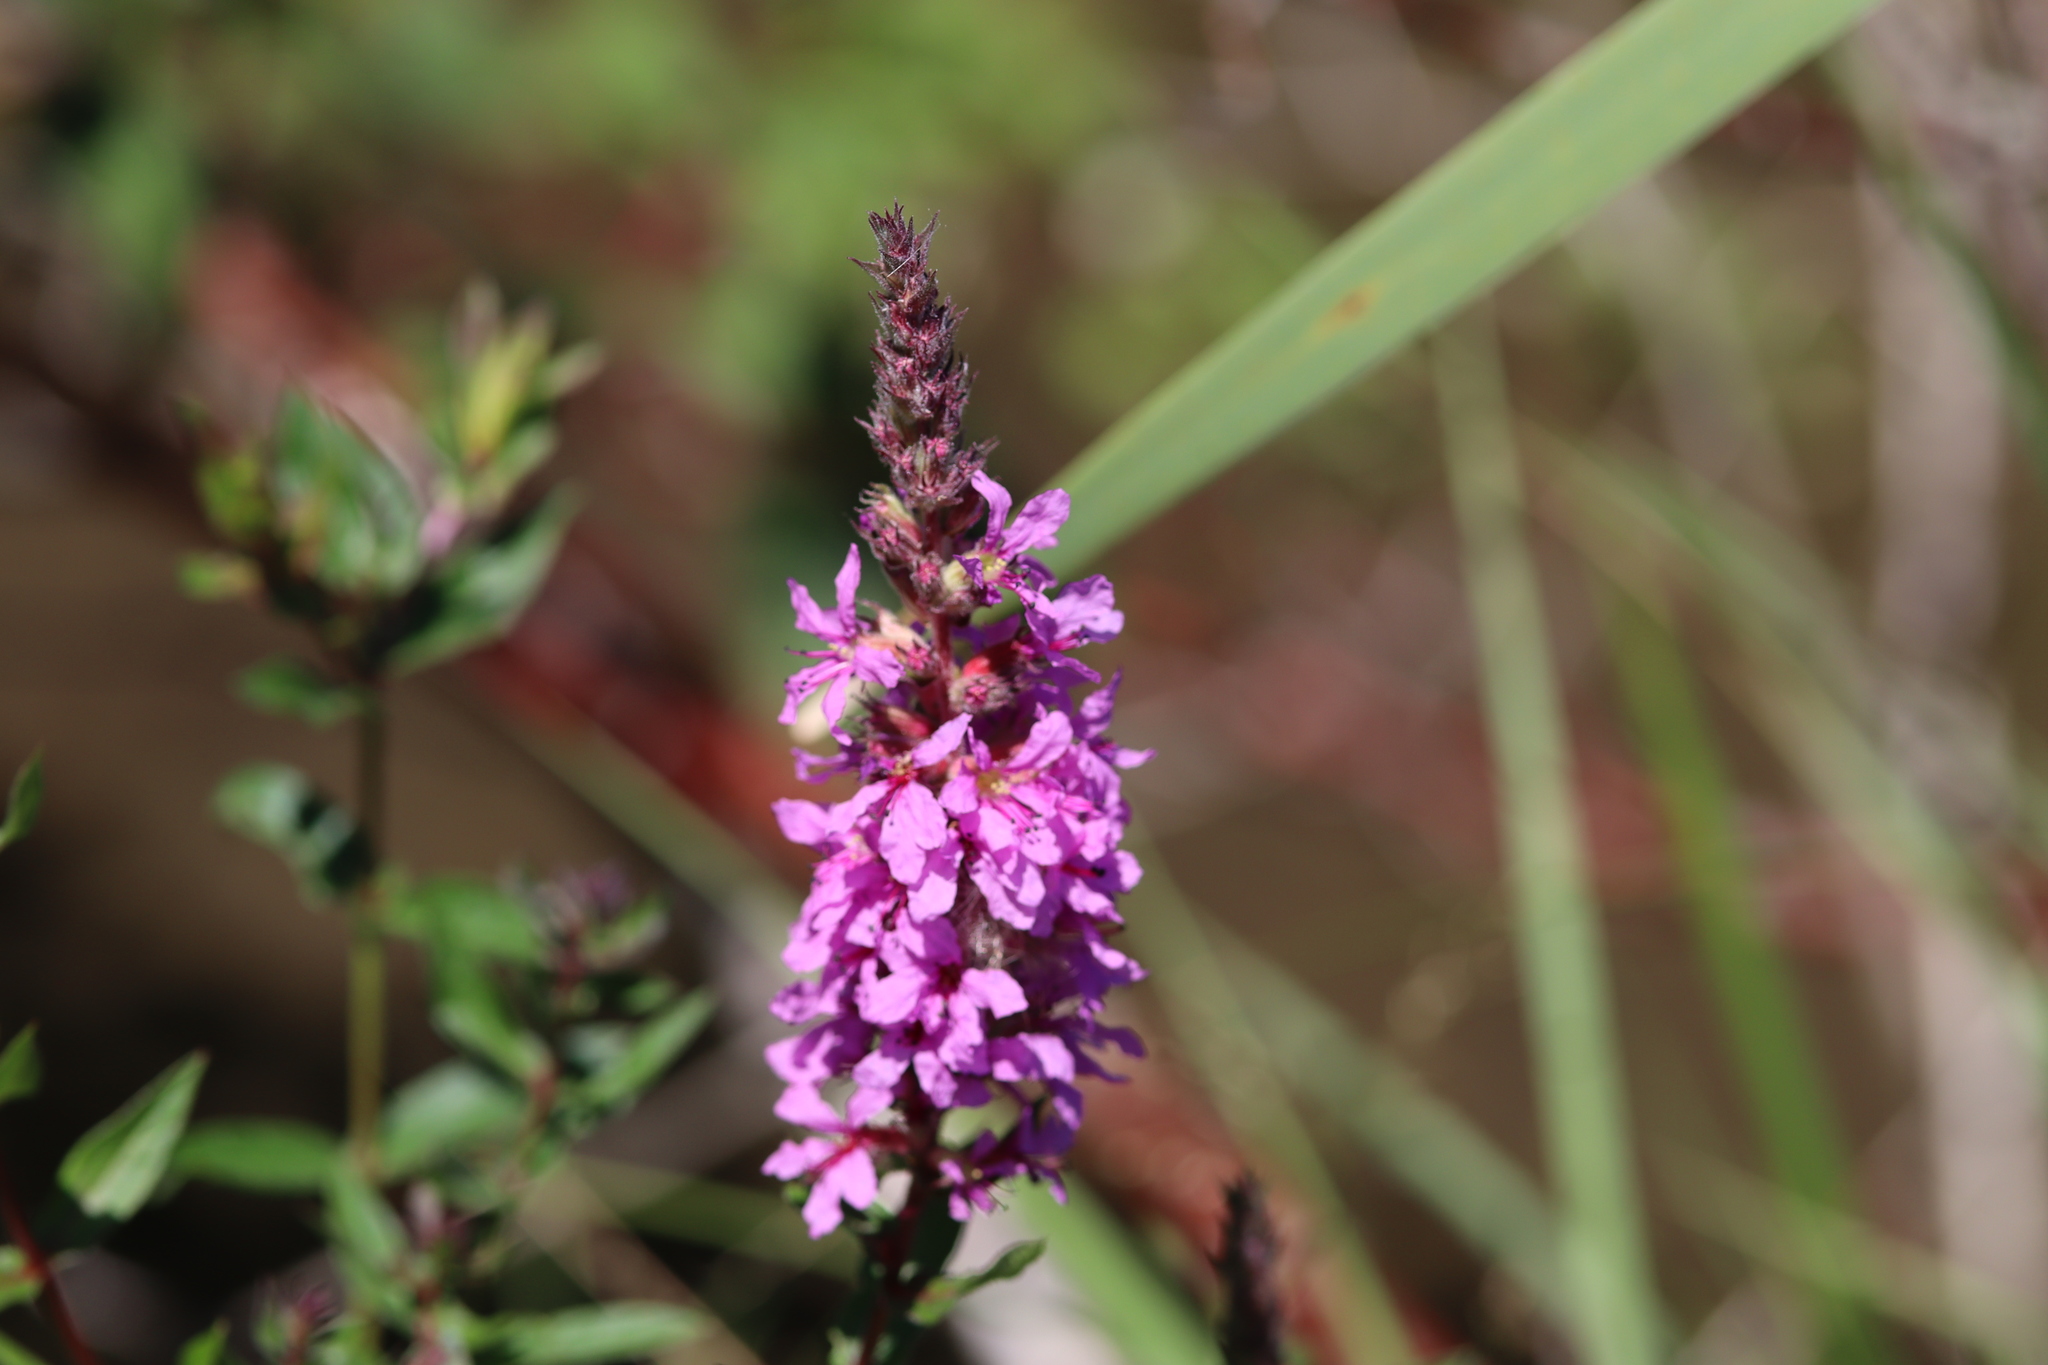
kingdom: Plantae
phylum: Tracheophyta
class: Magnoliopsida
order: Myrtales
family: Lythraceae
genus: Lythrum
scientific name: Lythrum salicaria
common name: Purple loosestrife
